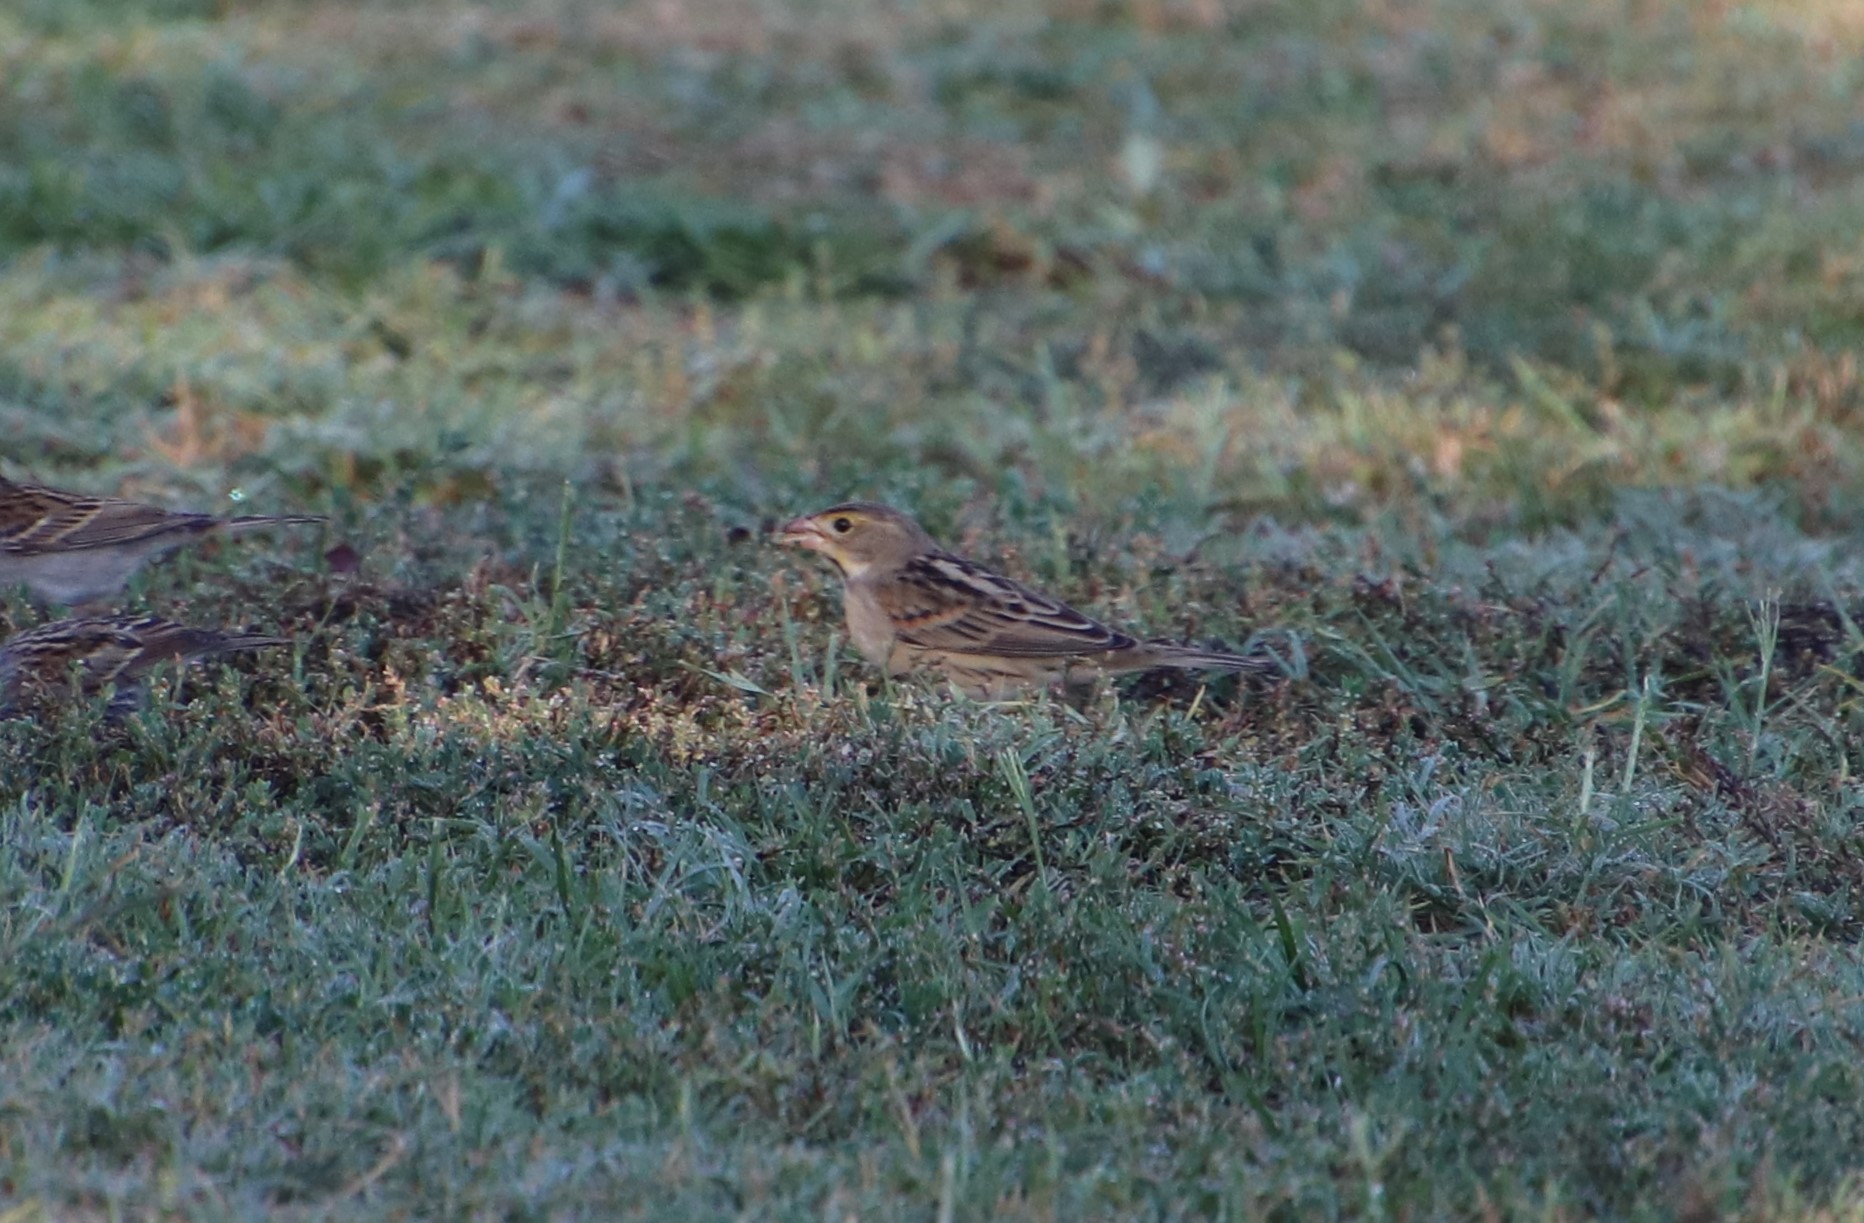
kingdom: Animalia
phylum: Chordata
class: Aves
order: Passeriformes
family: Cardinalidae
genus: Spiza
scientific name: Spiza americana
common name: Dickcissel
